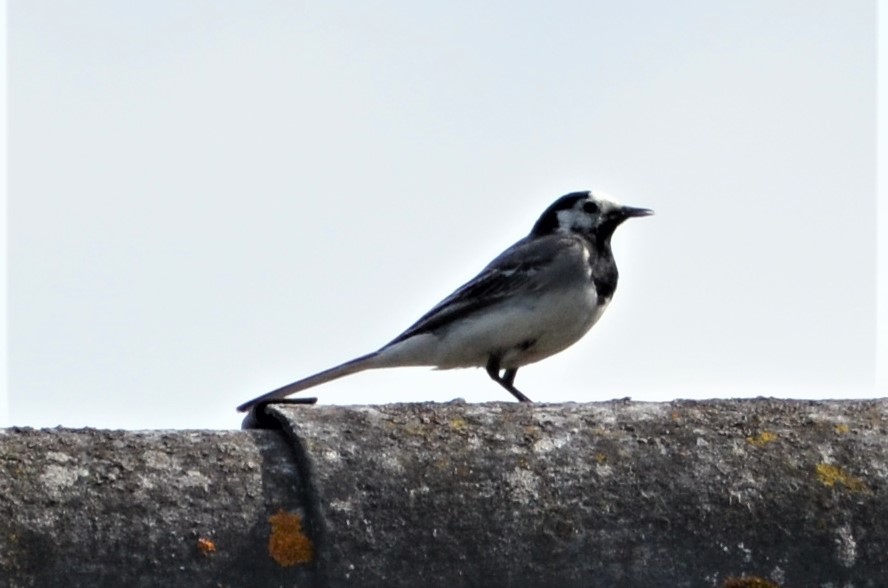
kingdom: Animalia
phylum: Chordata
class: Aves
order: Passeriformes
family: Motacillidae
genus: Motacilla
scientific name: Motacilla alba
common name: White wagtail
